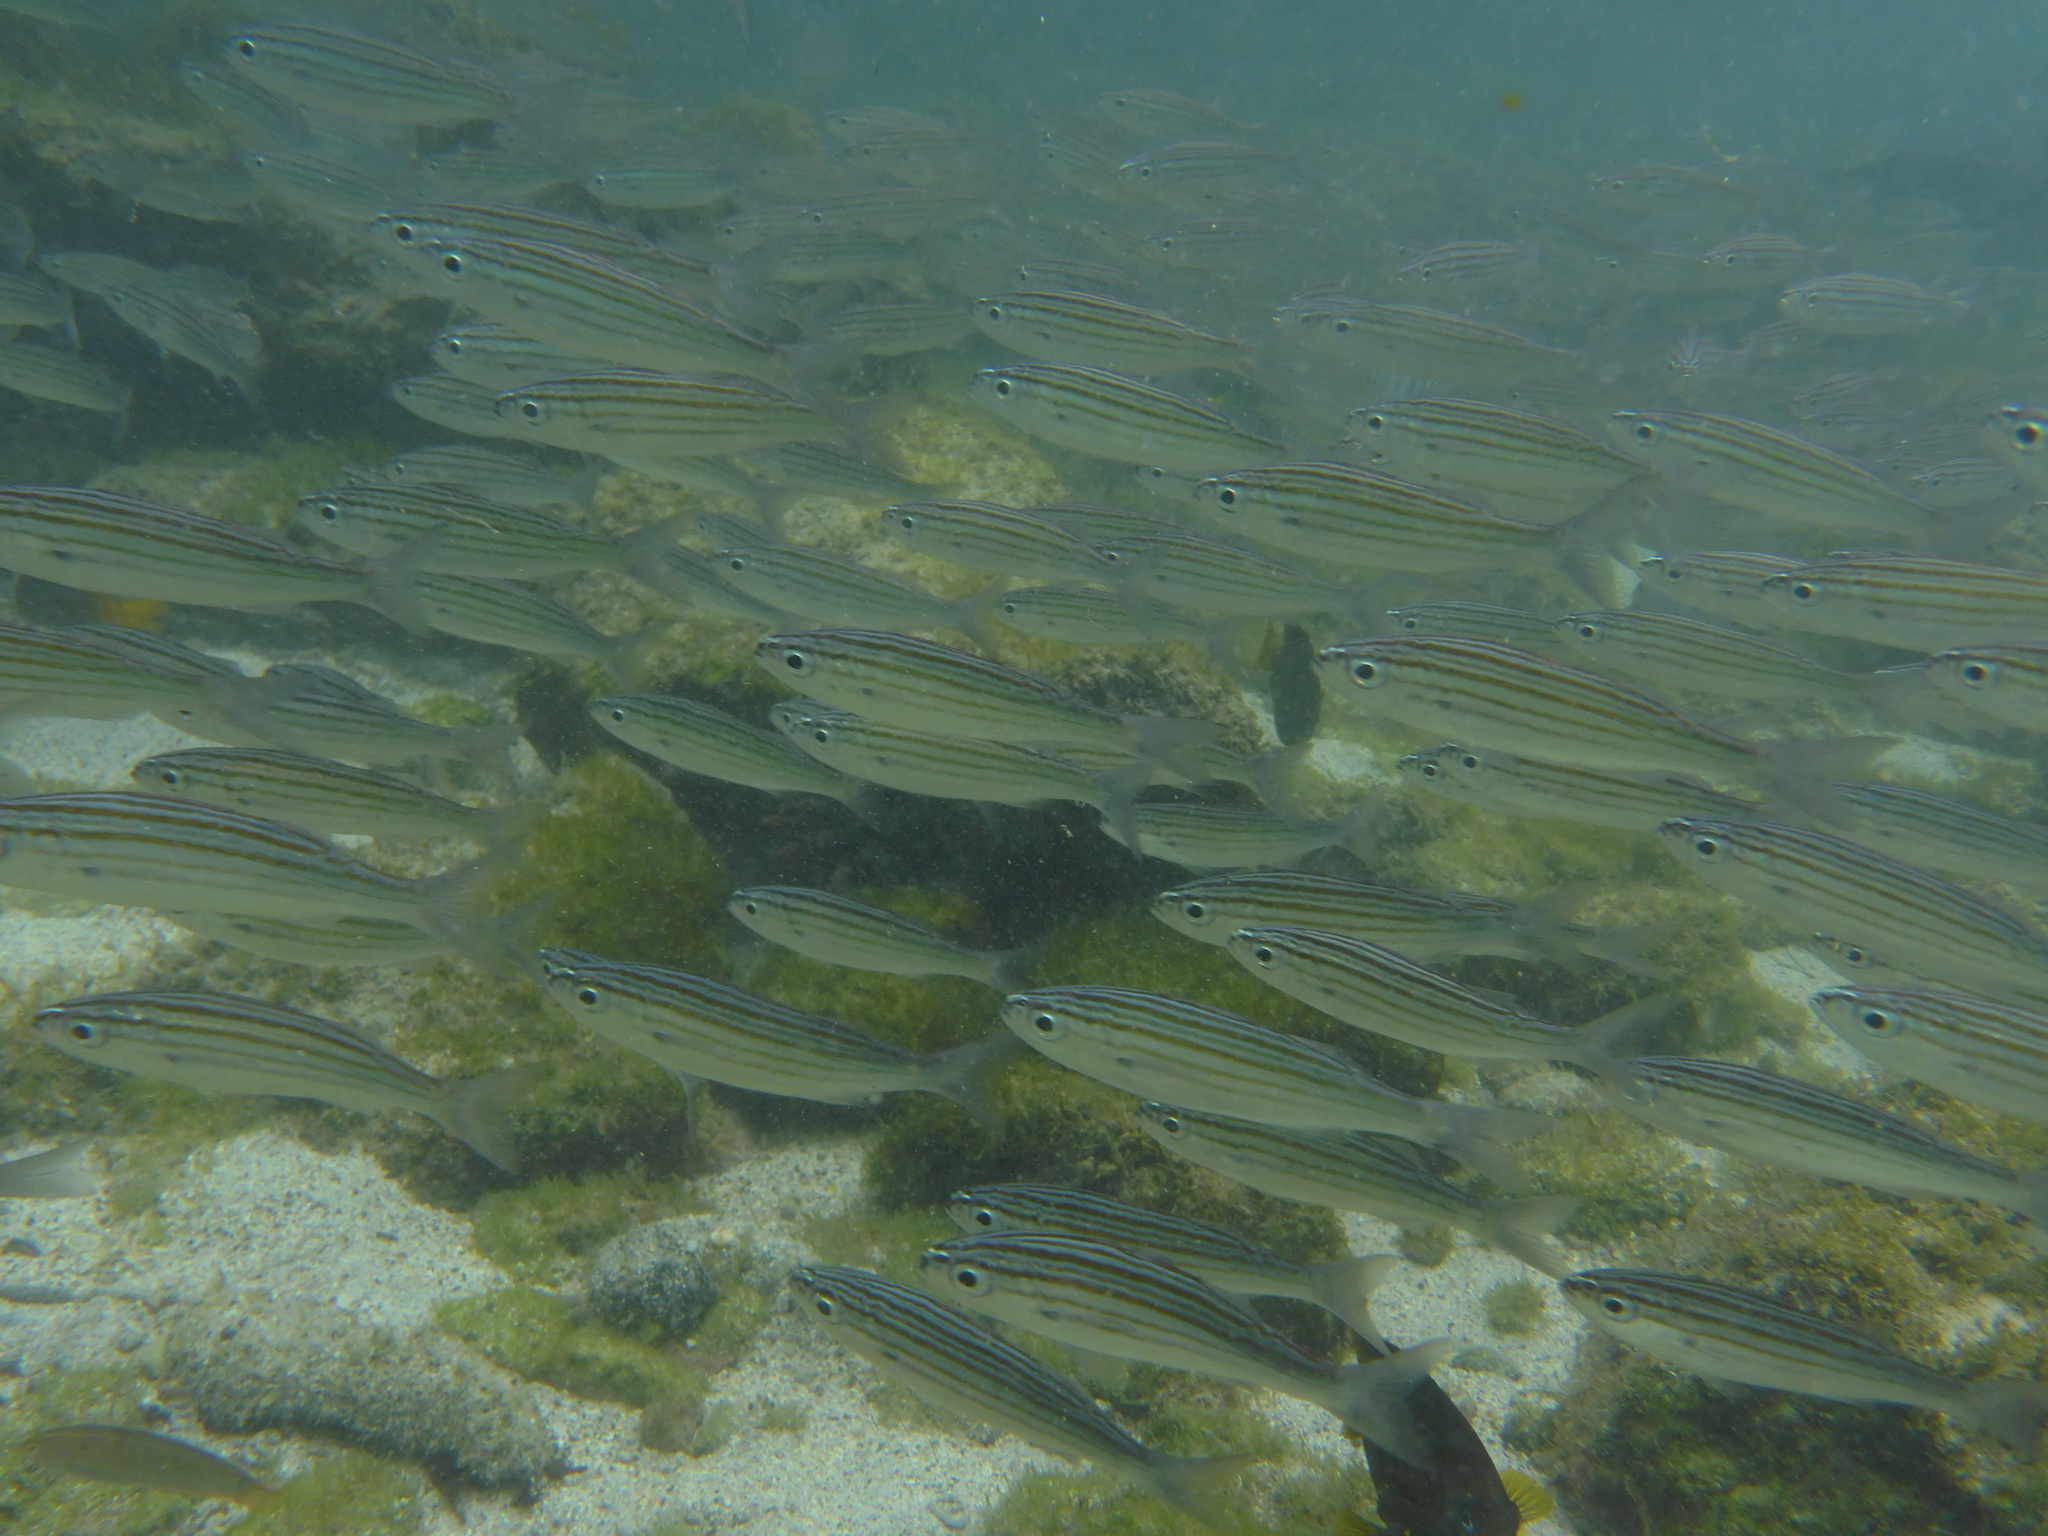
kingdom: Animalia
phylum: Chordata
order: Perciformes
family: Haemulidae
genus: Xenocys
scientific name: Xenocys jessiae
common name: Black-striped salema
